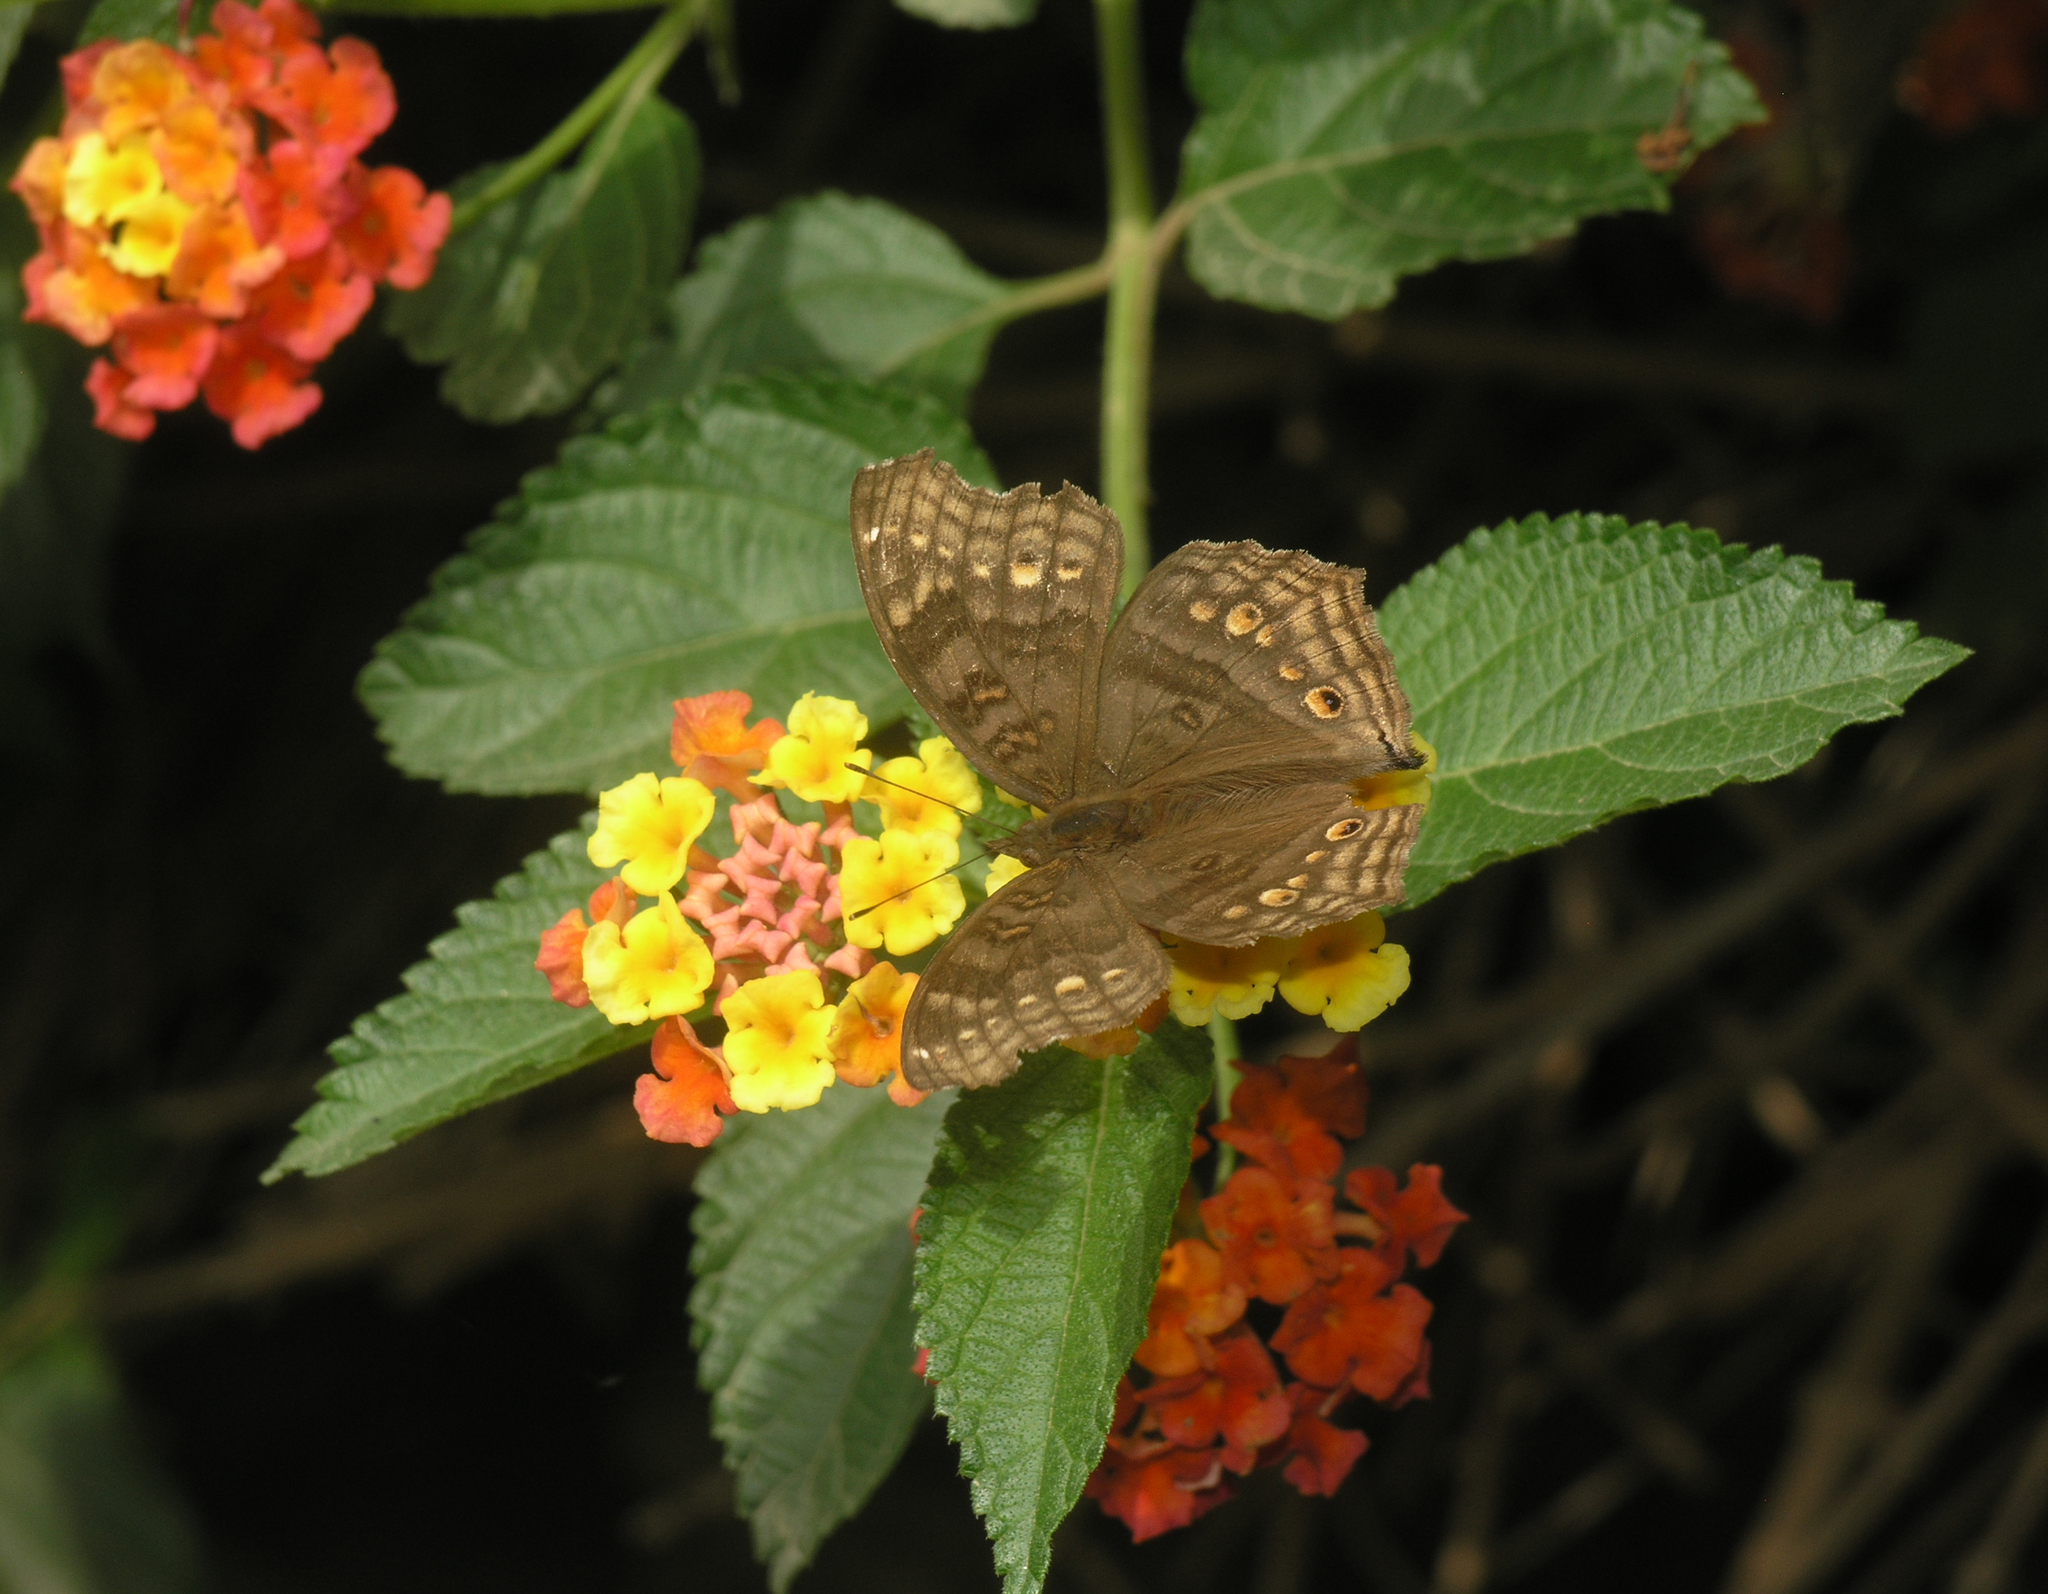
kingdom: Animalia
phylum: Arthropoda
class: Insecta
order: Lepidoptera
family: Nymphalidae
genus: Junonia
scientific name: Junonia chorimene
